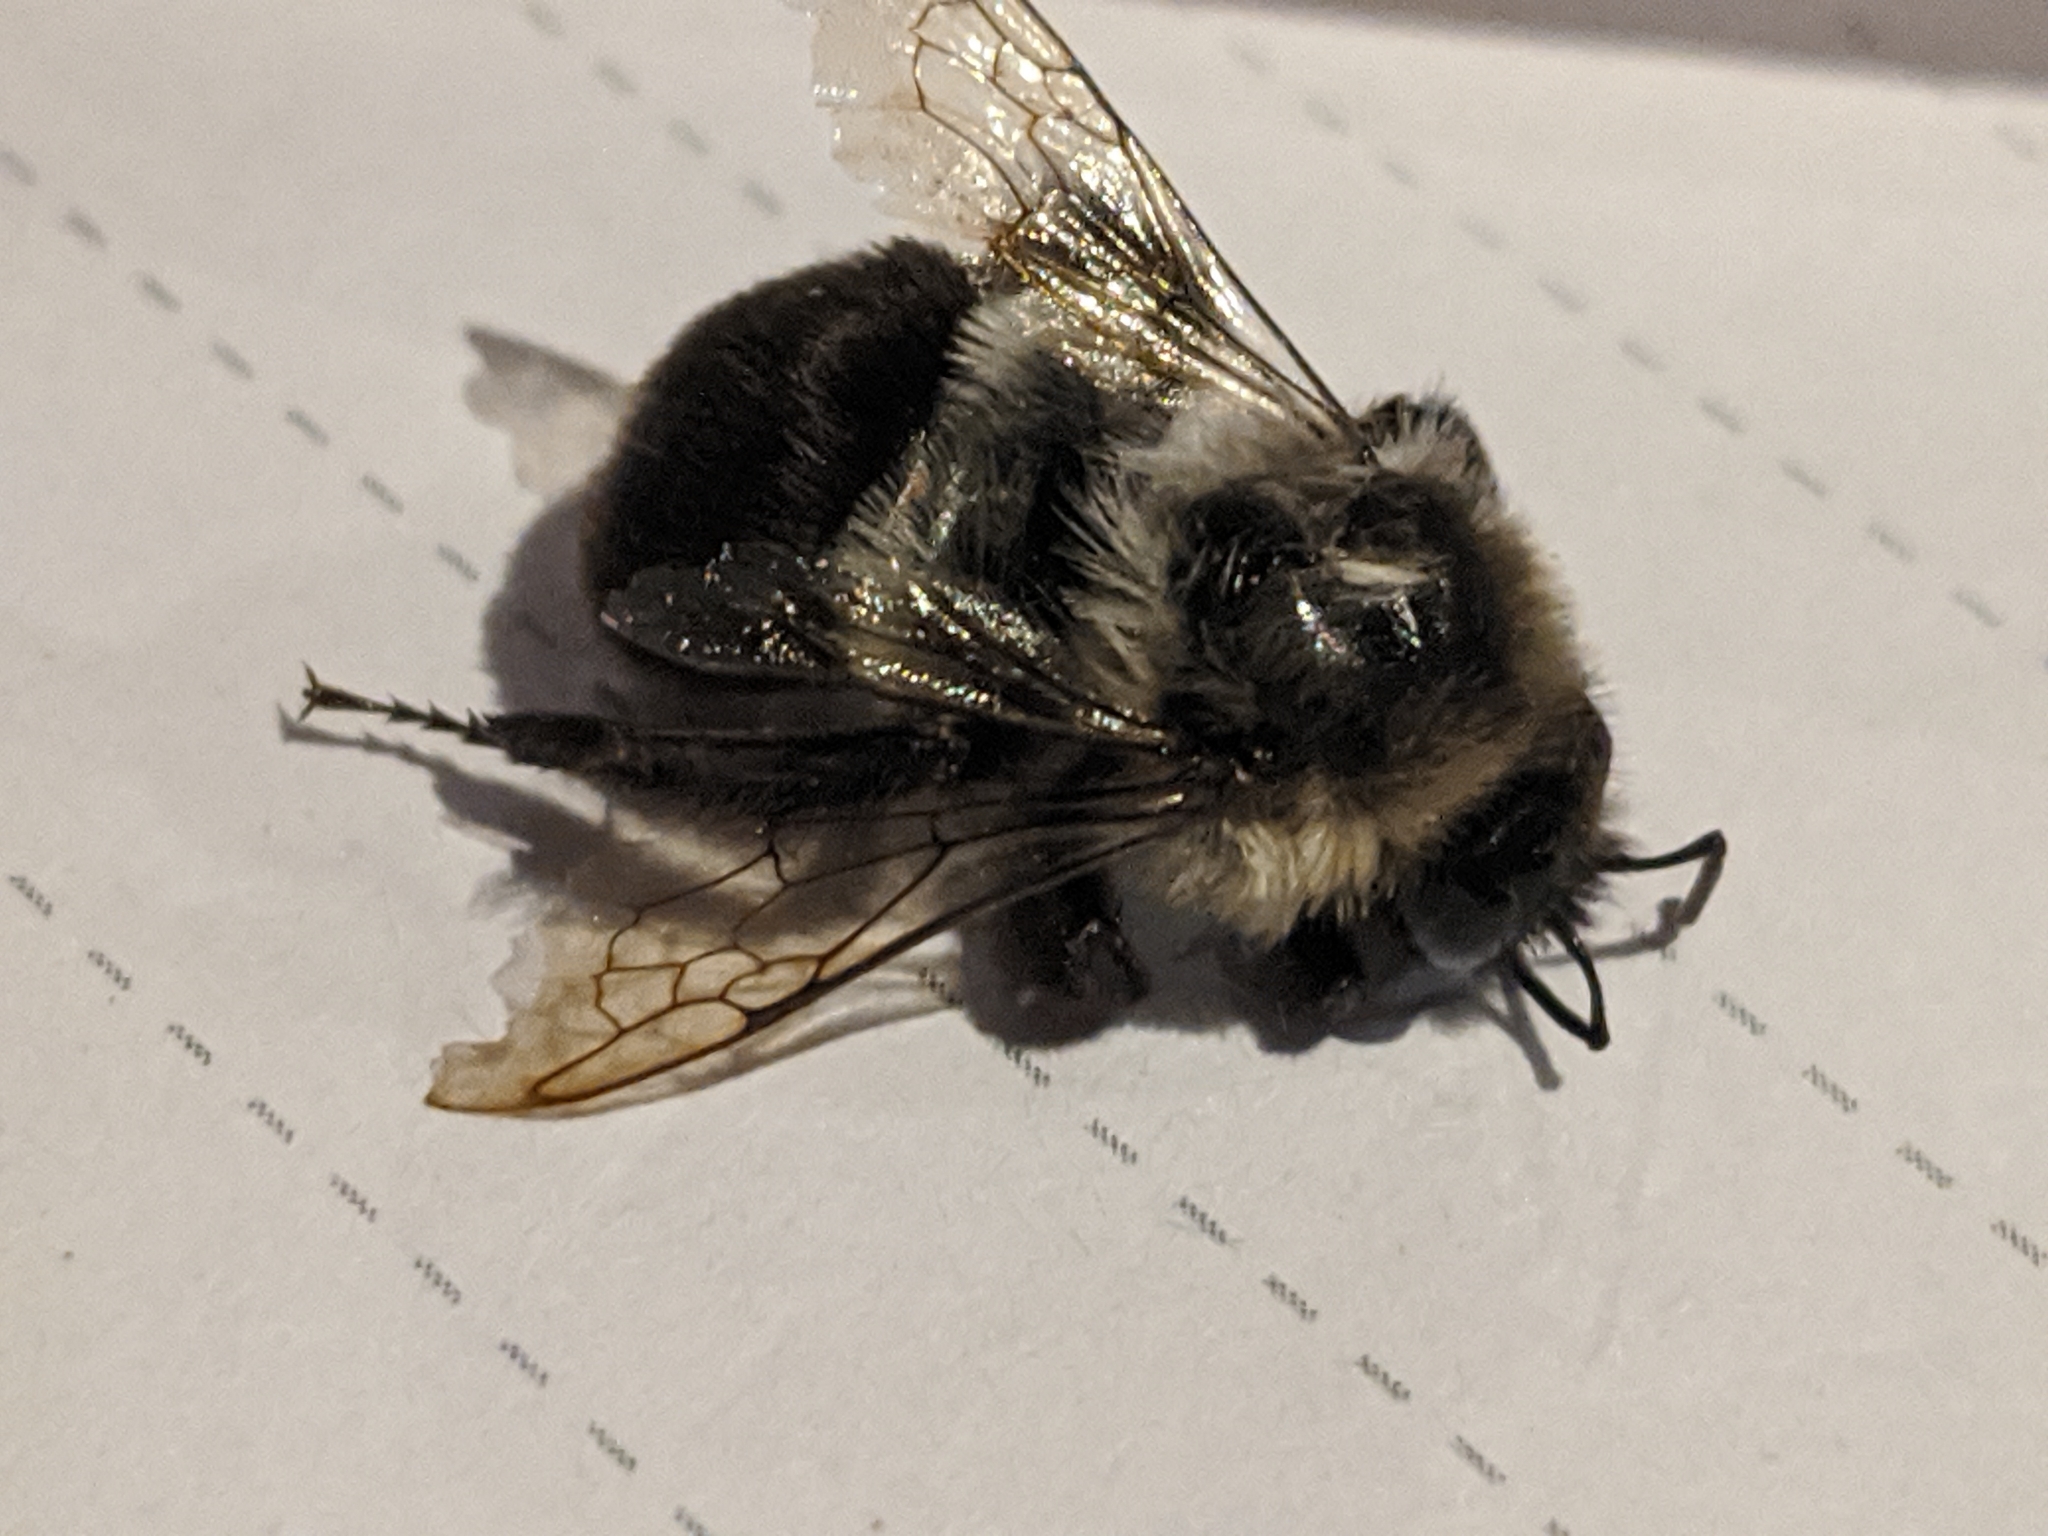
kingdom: Animalia
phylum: Arthropoda
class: Insecta
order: Hymenoptera
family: Apidae
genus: Bombus
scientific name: Bombus impatiens
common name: Common eastern bumble bee
